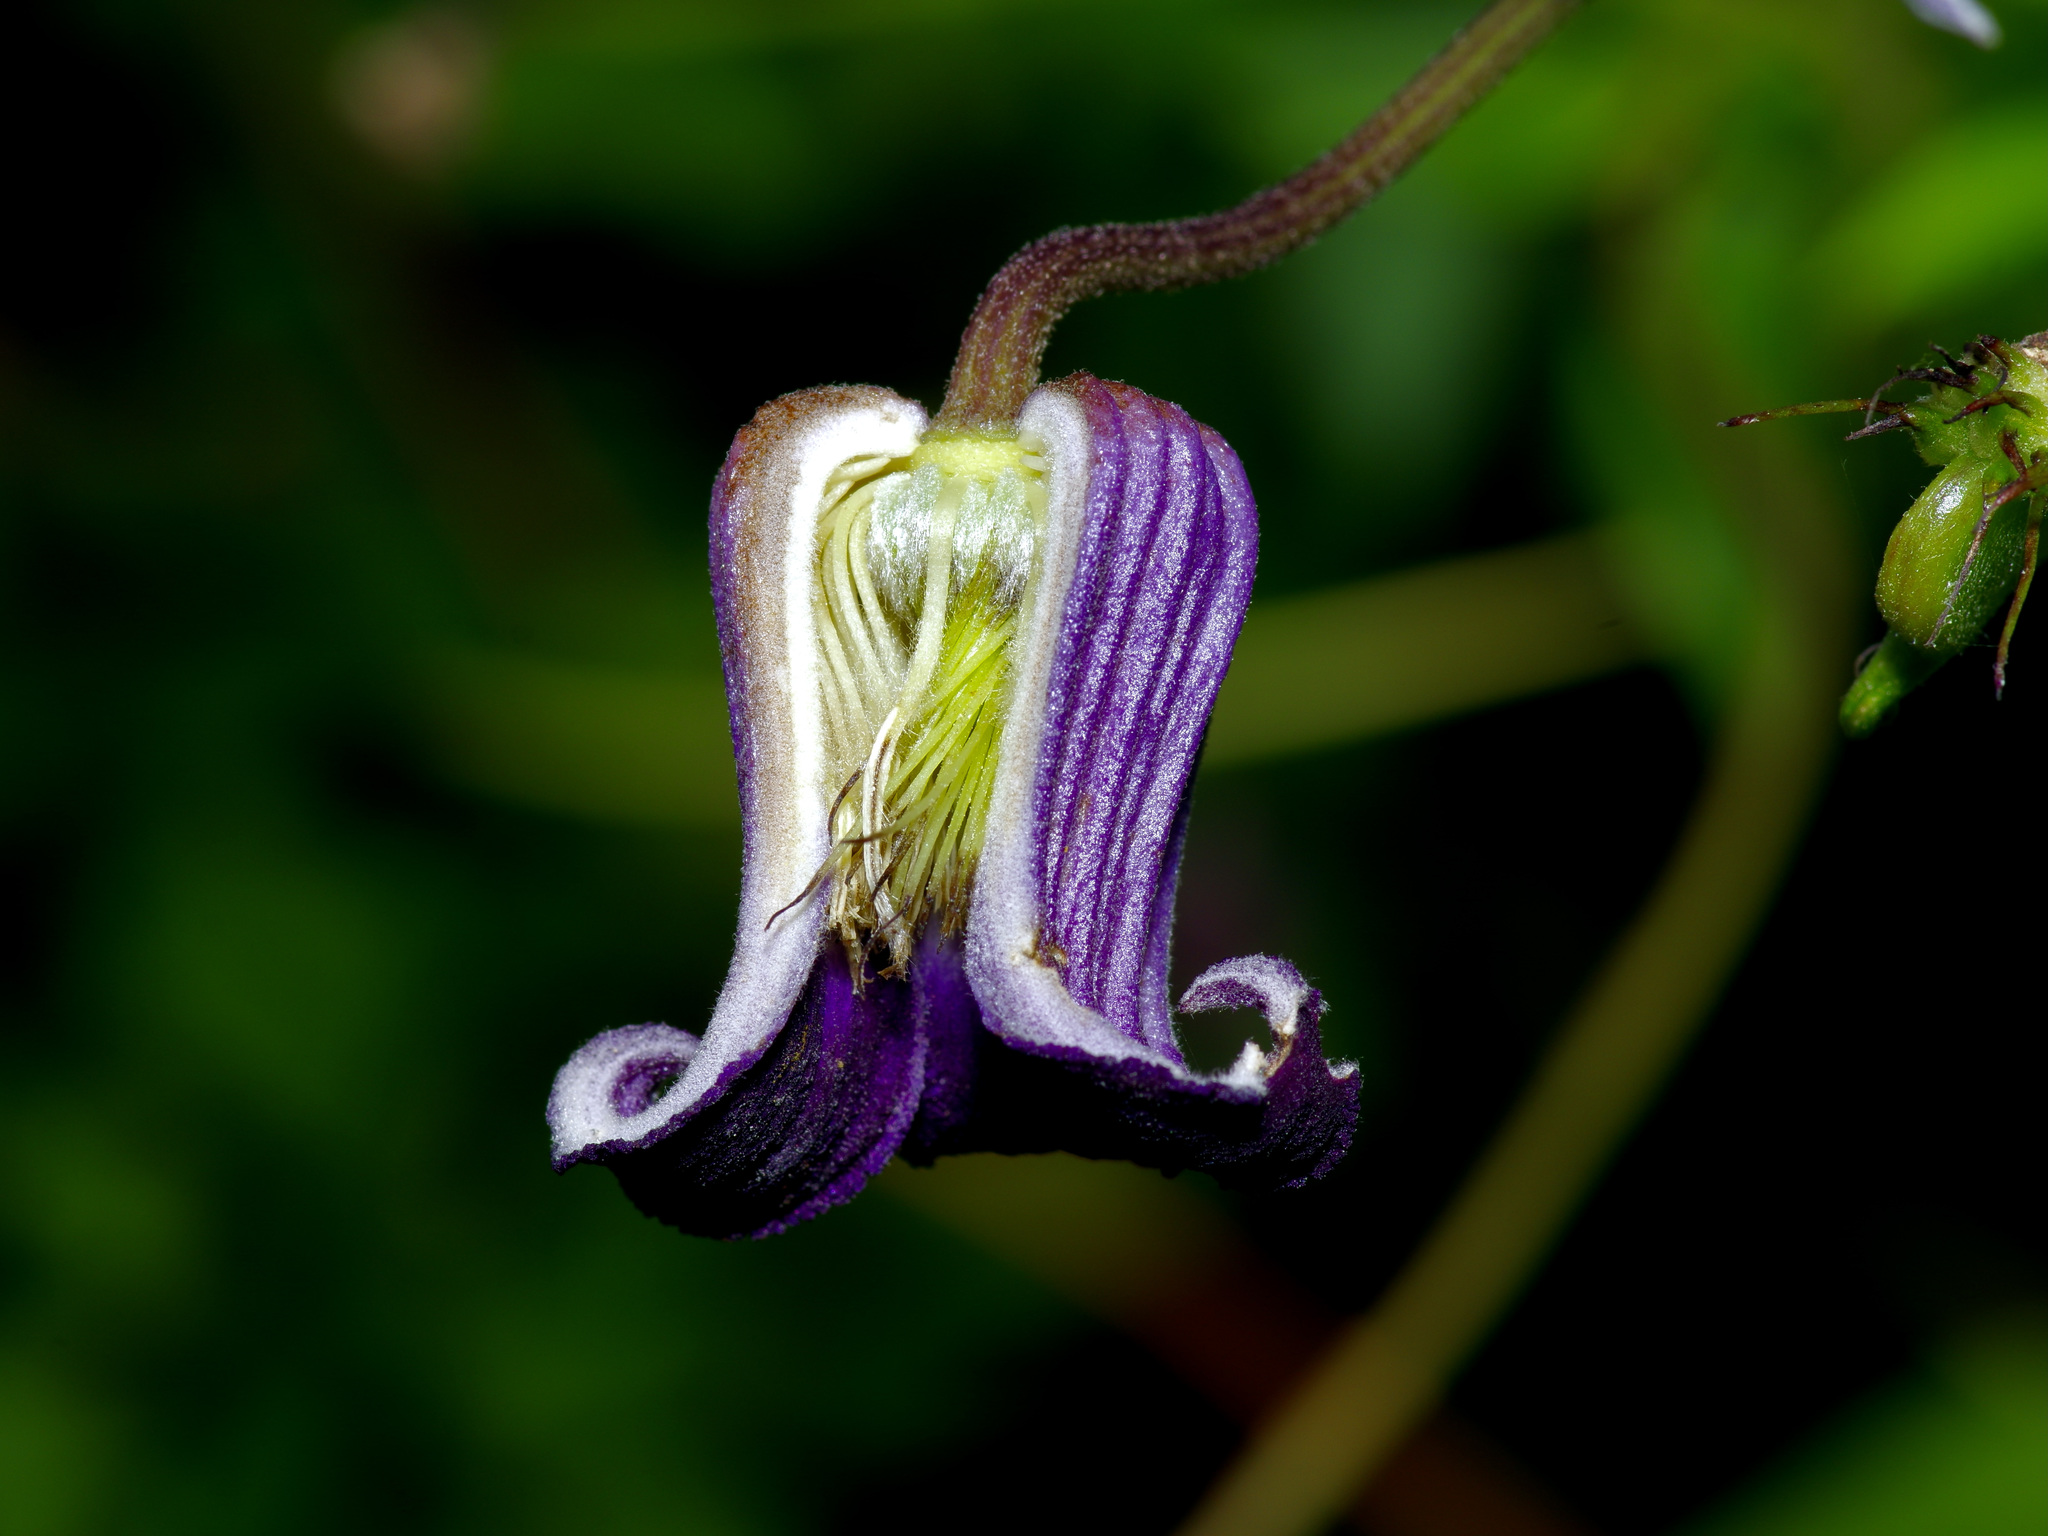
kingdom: Plantae
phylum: Tracheophyta
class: Magnoliopsida
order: Ranunculales
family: Ranunculaceae
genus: Clematis
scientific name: Clematis pitcheri
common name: Bellflower clematis
